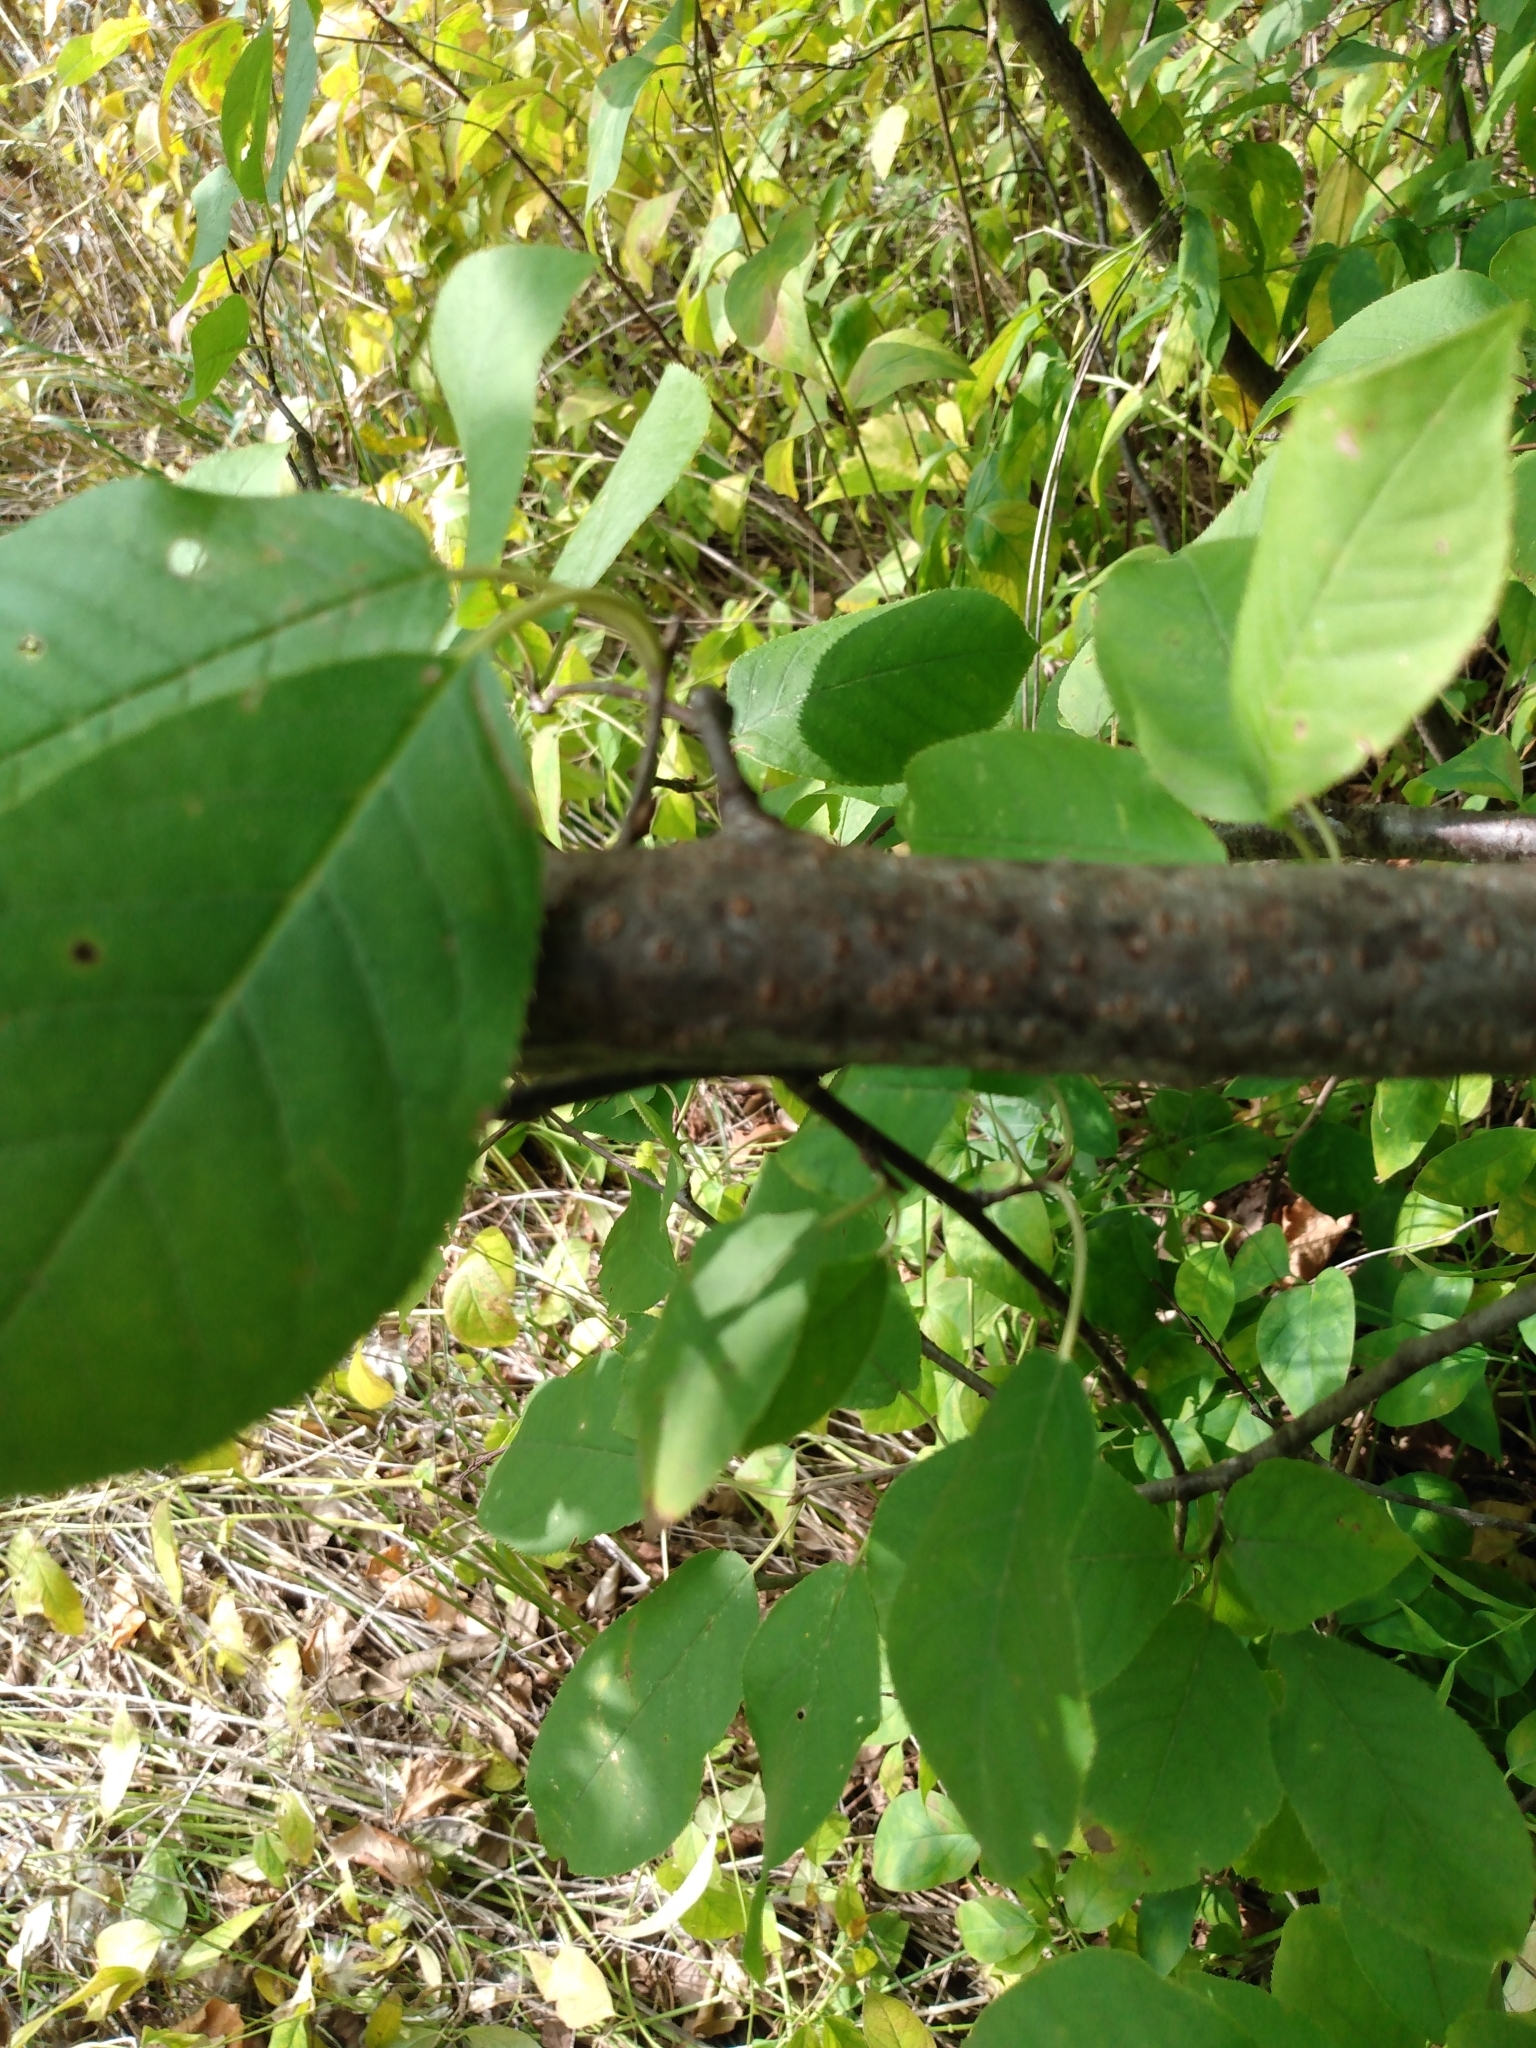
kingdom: Plantae
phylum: Tracheophyta
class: Magnoliopsida
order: Rosales
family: Rosaceae
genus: Prunus
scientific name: Prunus virginiana
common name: Chokecherry
